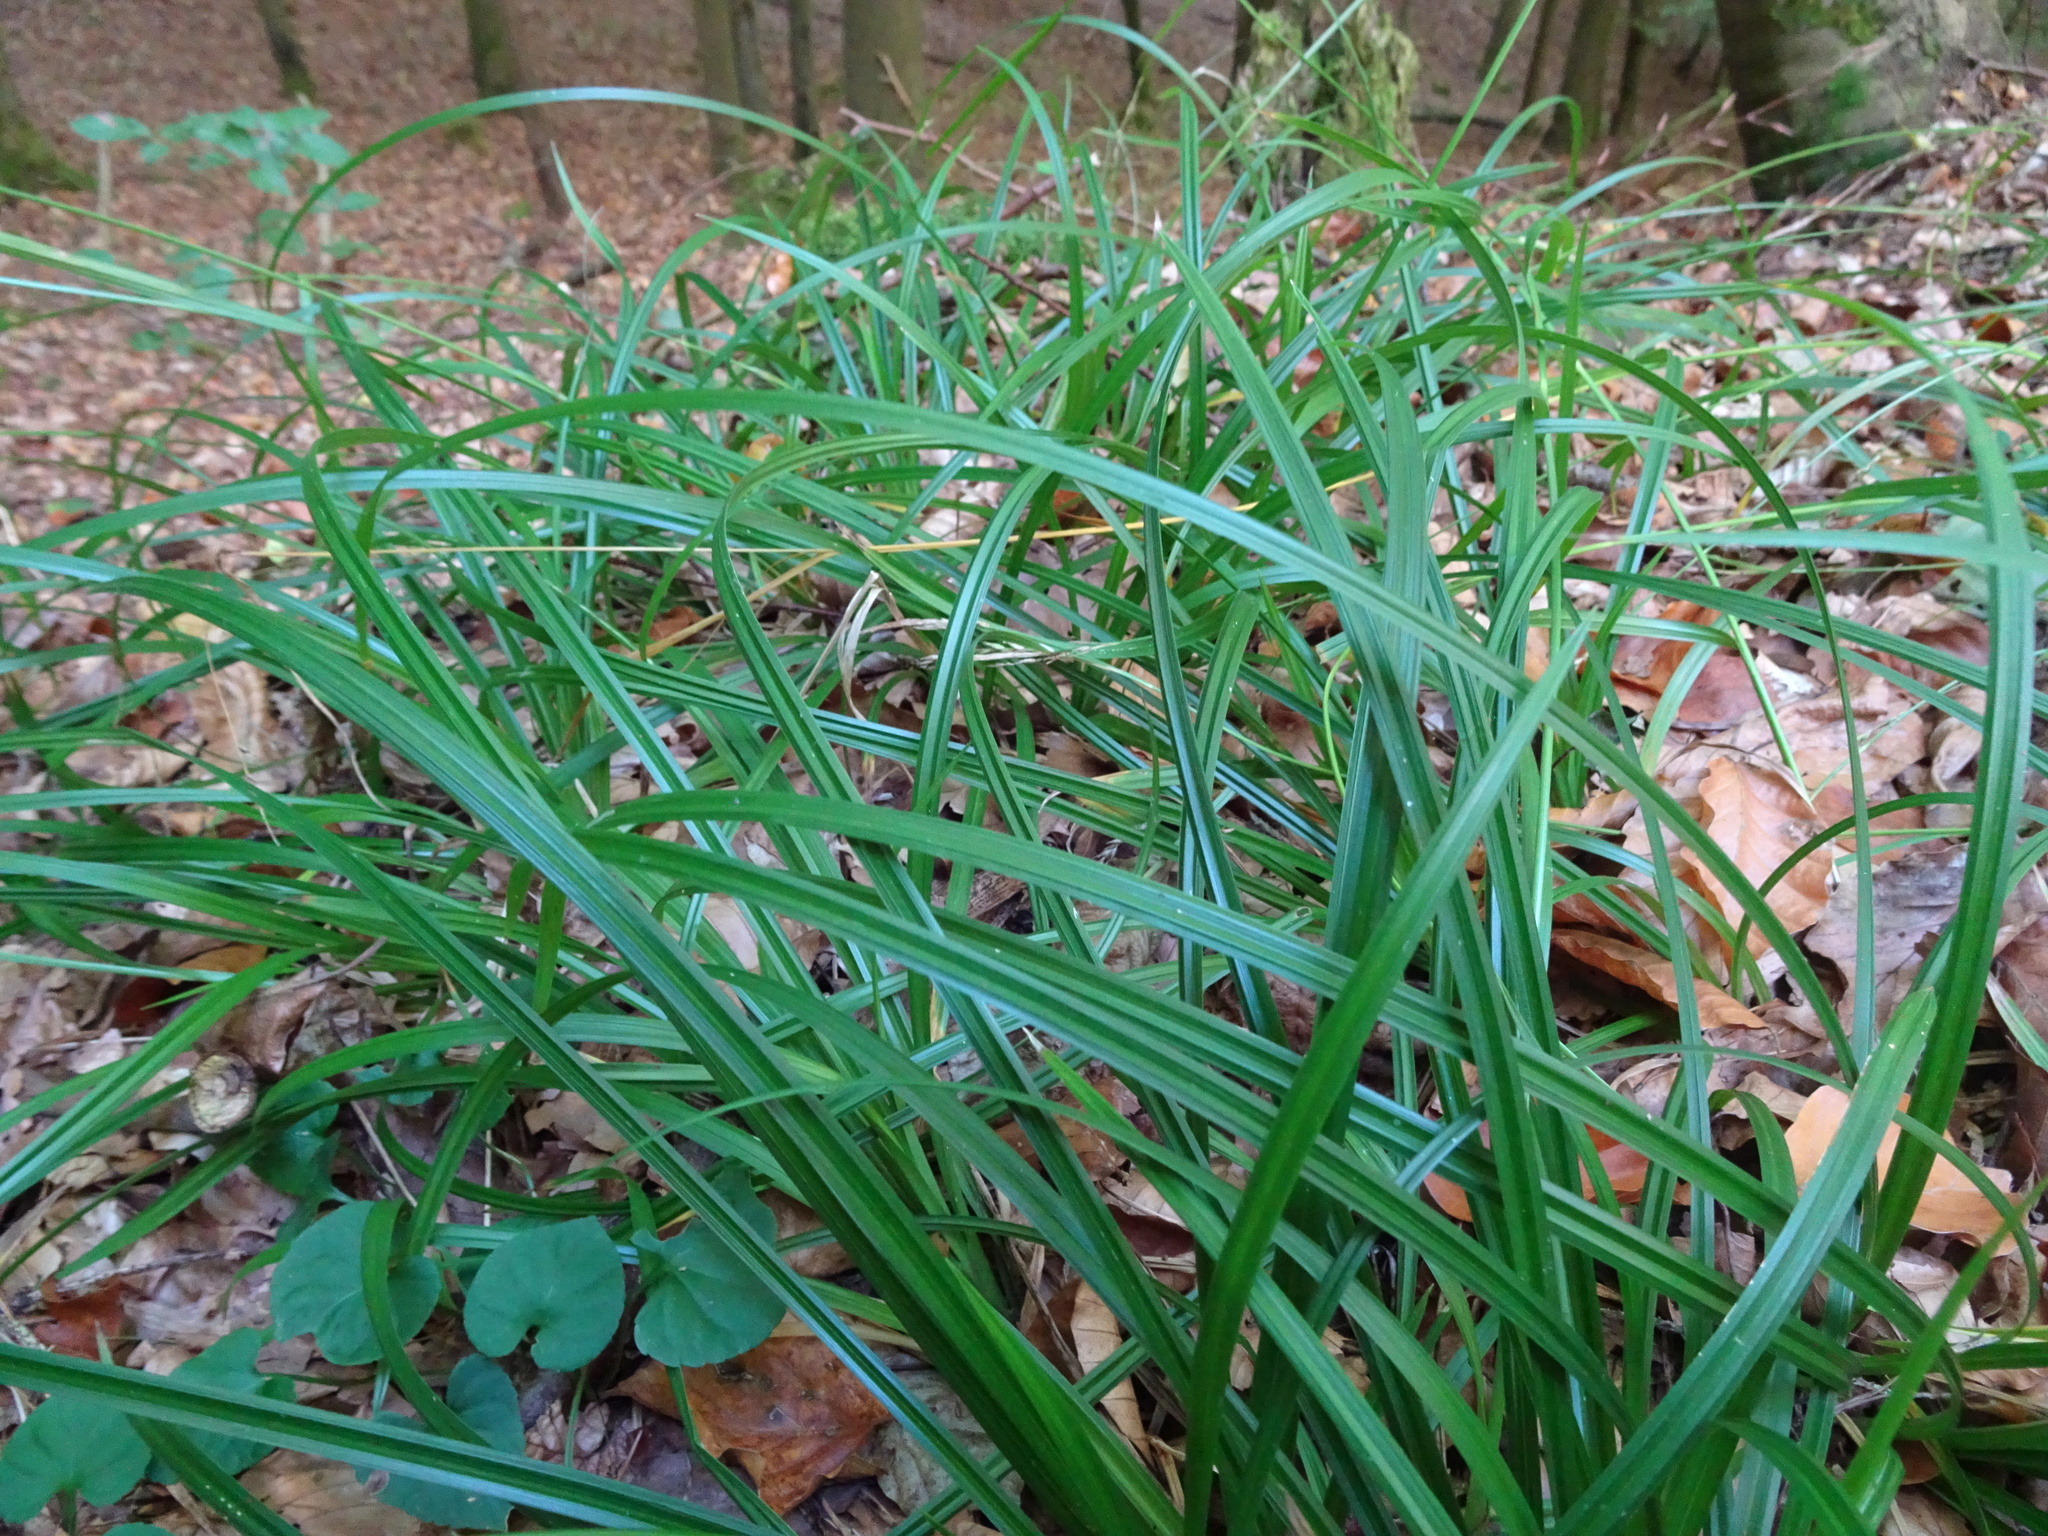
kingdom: Plantae
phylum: Tracheophyta
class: Liliopsida
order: Poales
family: Cyperaceae
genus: Carex
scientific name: Carex sylvatica
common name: Wood-sedge
